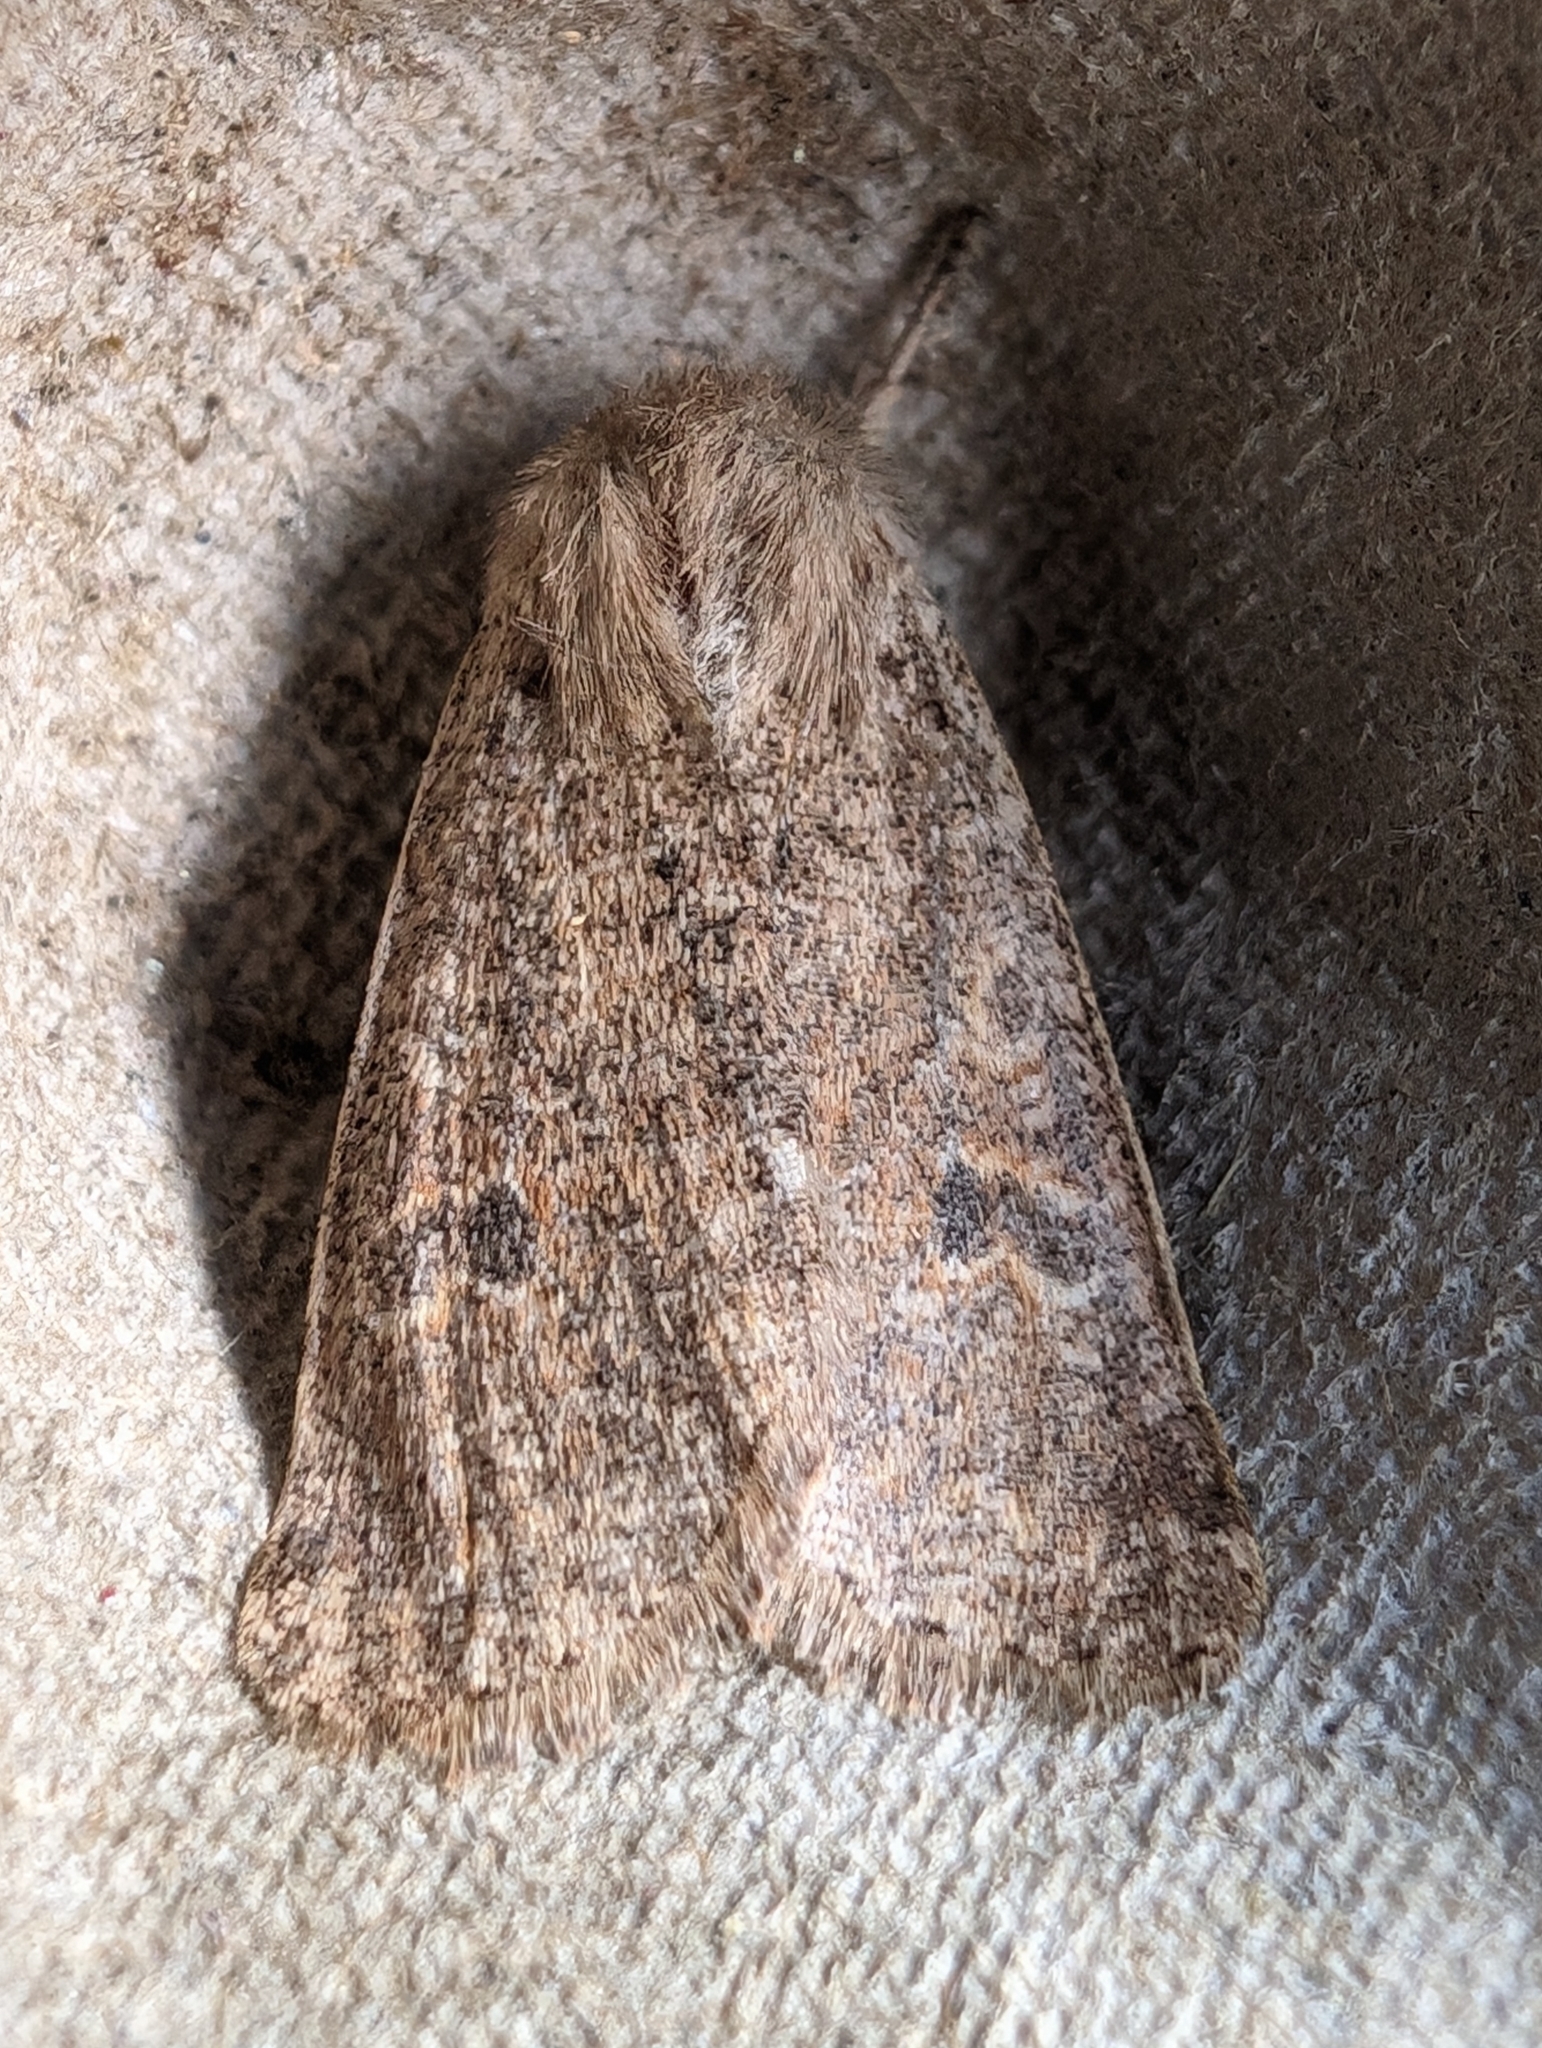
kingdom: Animalia
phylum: Arthropoda
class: Insecta
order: Lepidoptera
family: Noctuidae
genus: Orthosia
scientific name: Orthosia cruda
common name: Small quaker
